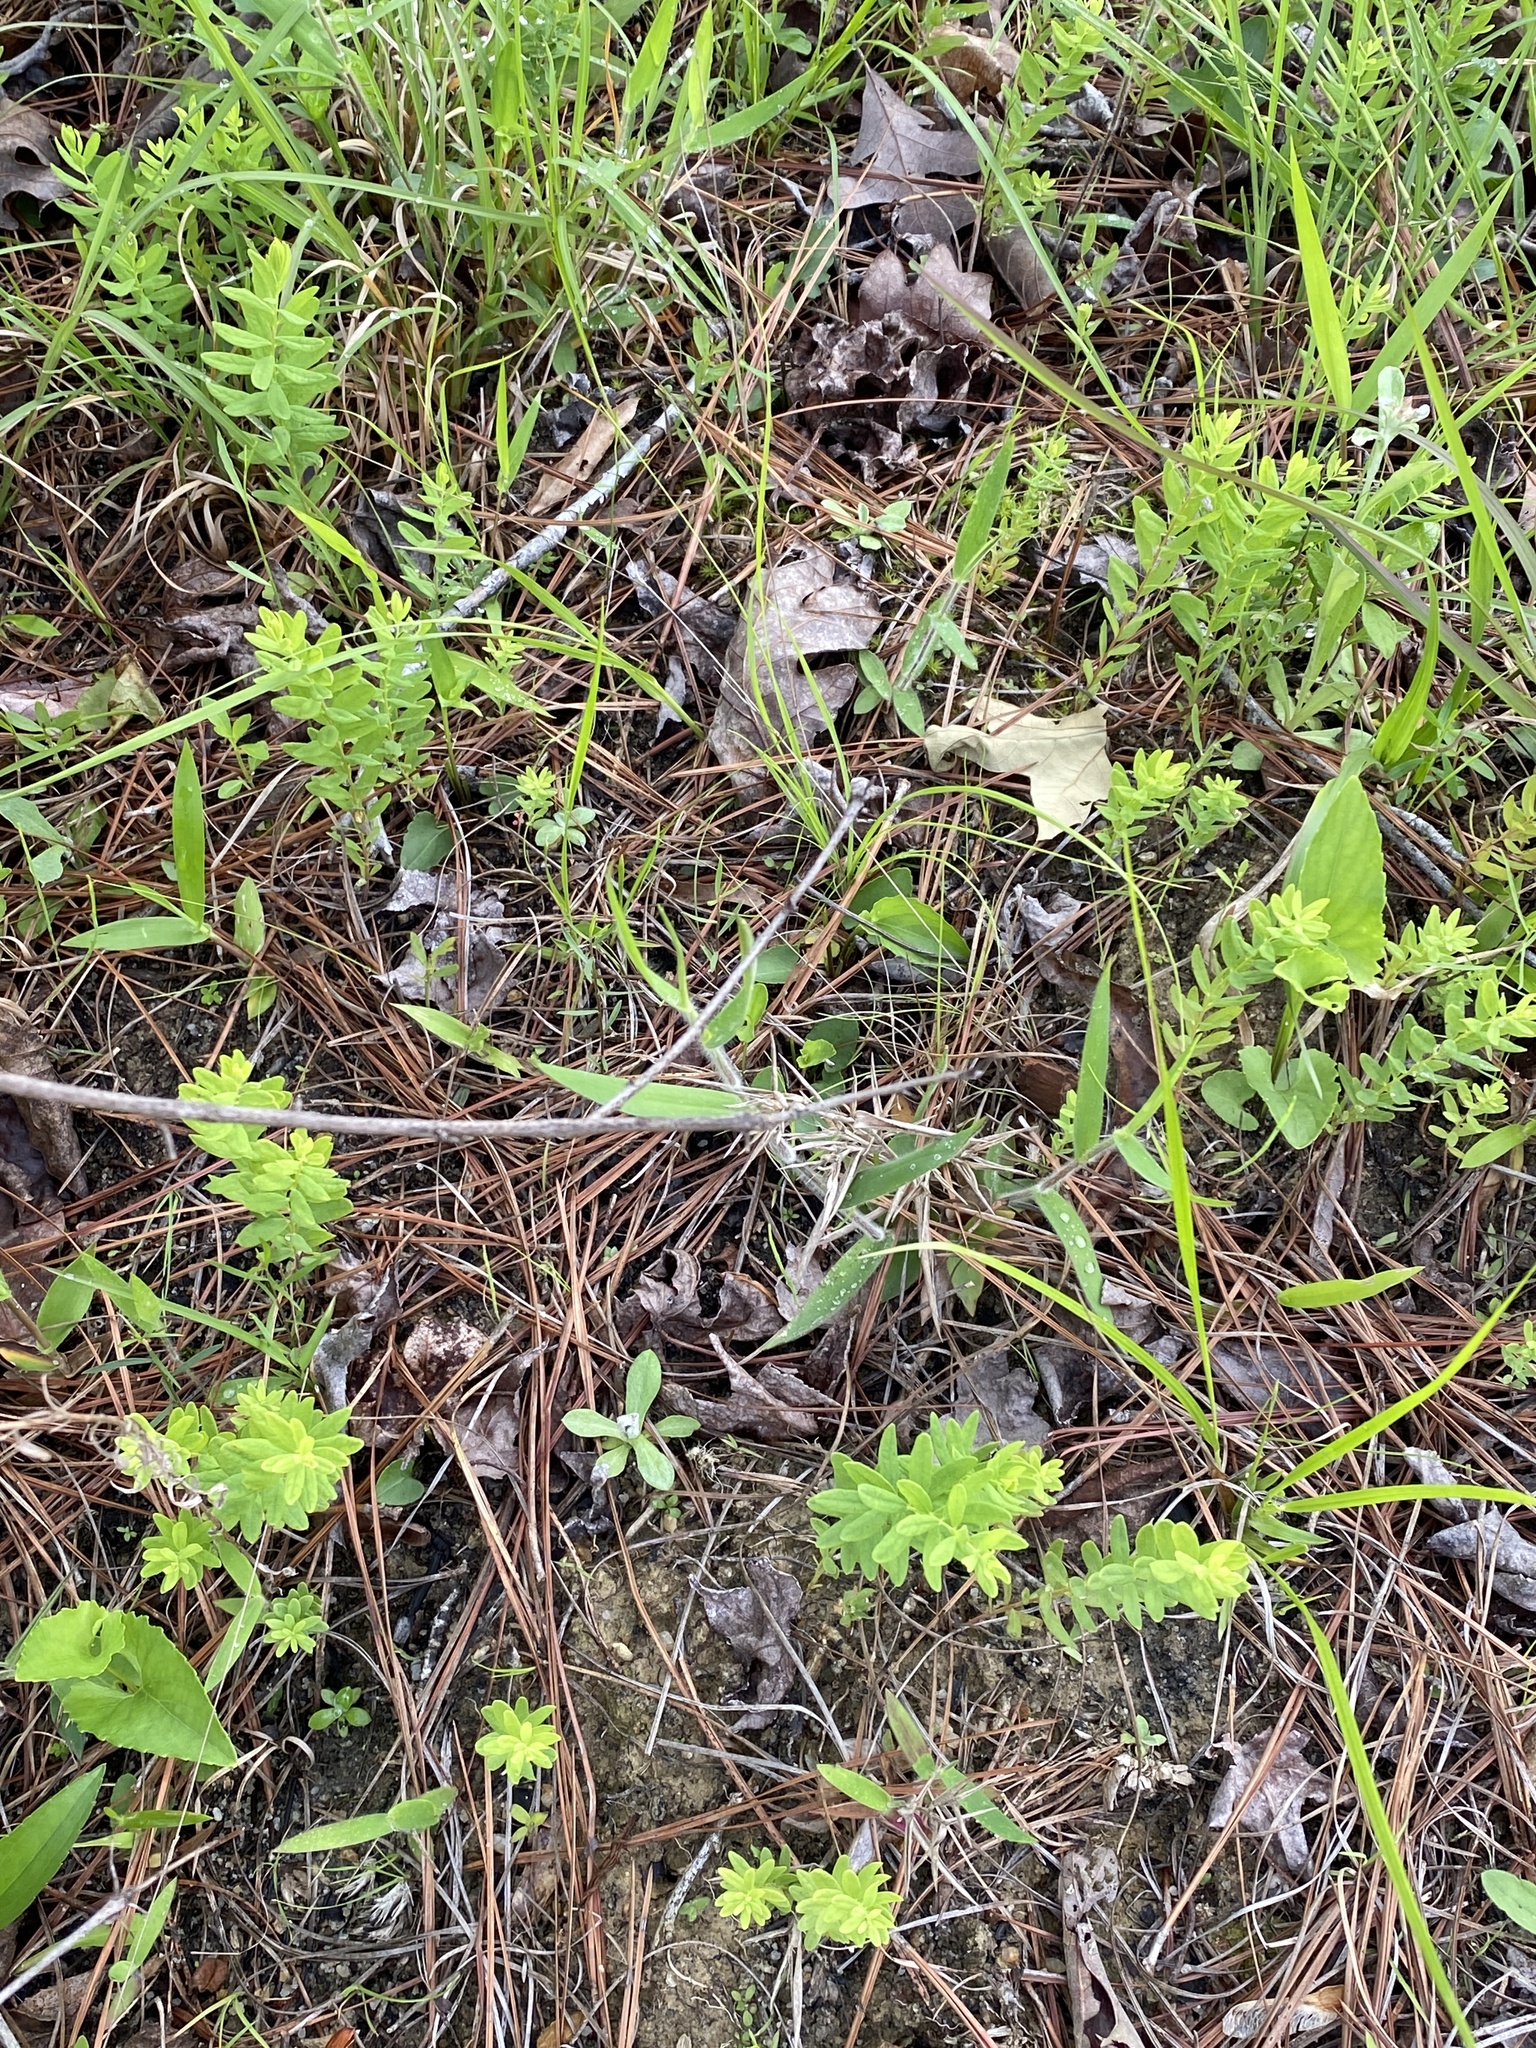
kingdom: Plantae
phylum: Tracheophyta
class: Magnoliopsida
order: Santalales
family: Comandraceae
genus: Comandra
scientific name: Comandra umbellata
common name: Bastard toadflax
